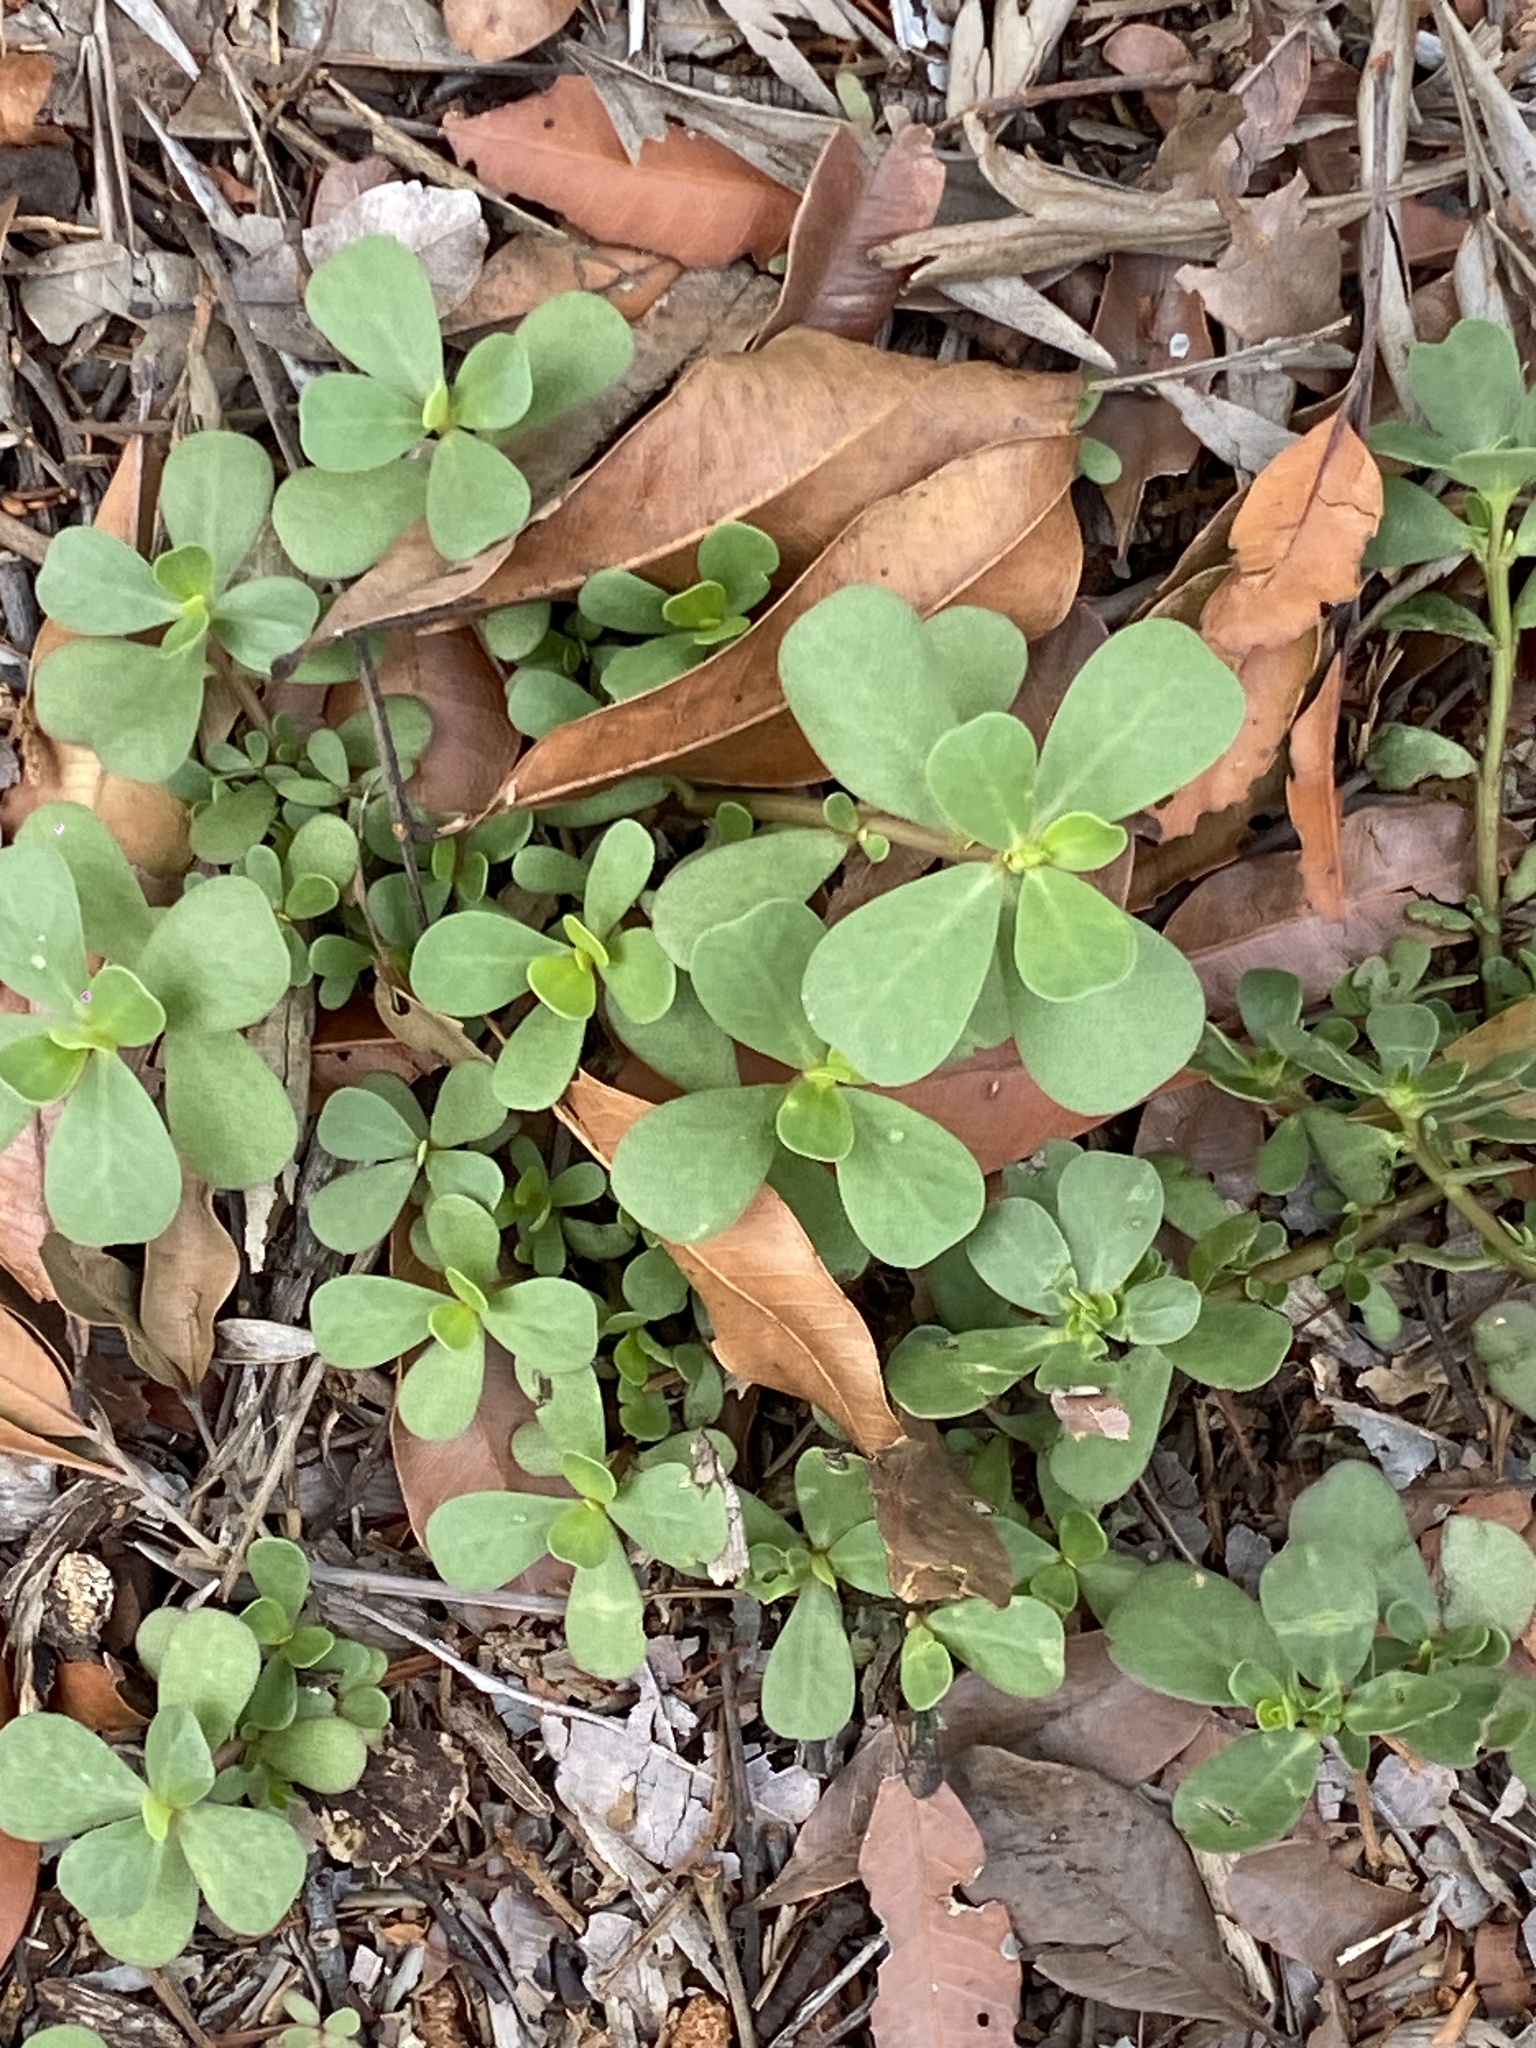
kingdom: Plantae
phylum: Tracheophyta
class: Magnoliopsida
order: Caryophyllales
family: Portulacaceae
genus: Portulaca
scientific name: Portulaca oleracea
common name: Common purslane
